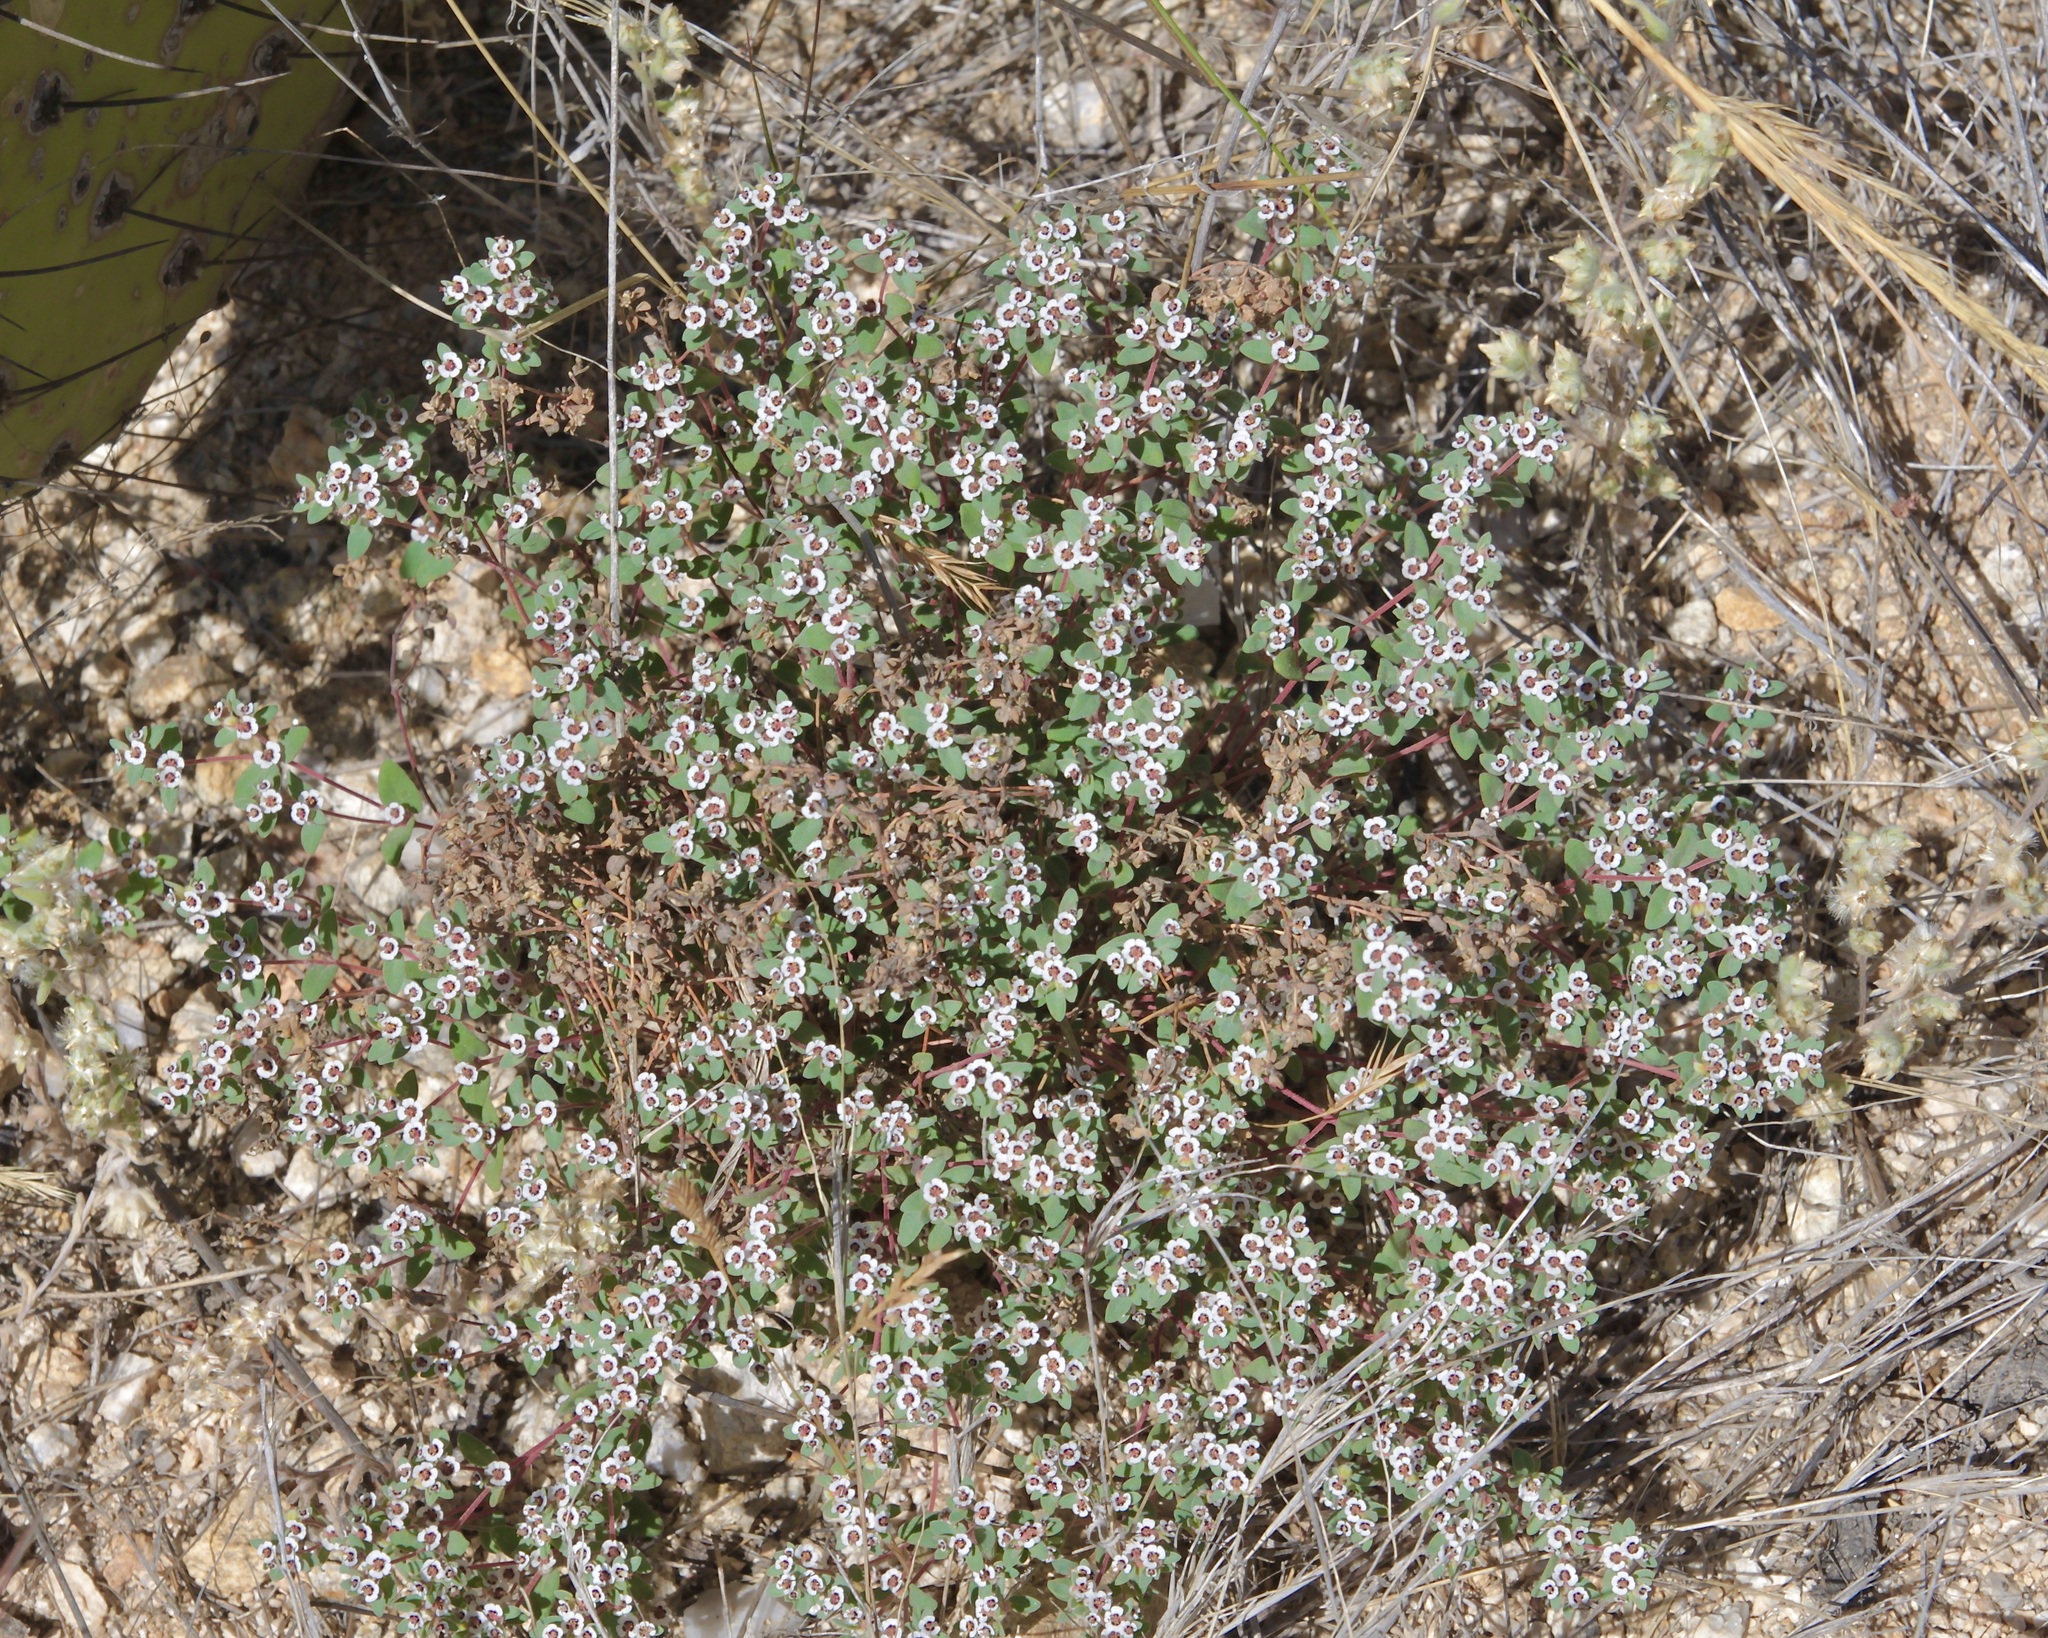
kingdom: Plantae
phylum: Tracheophyta
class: Magnoliopsida
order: Malpighiales
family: Euphorbiaceae
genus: Euphorbia
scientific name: Euphorbia melanadenia
